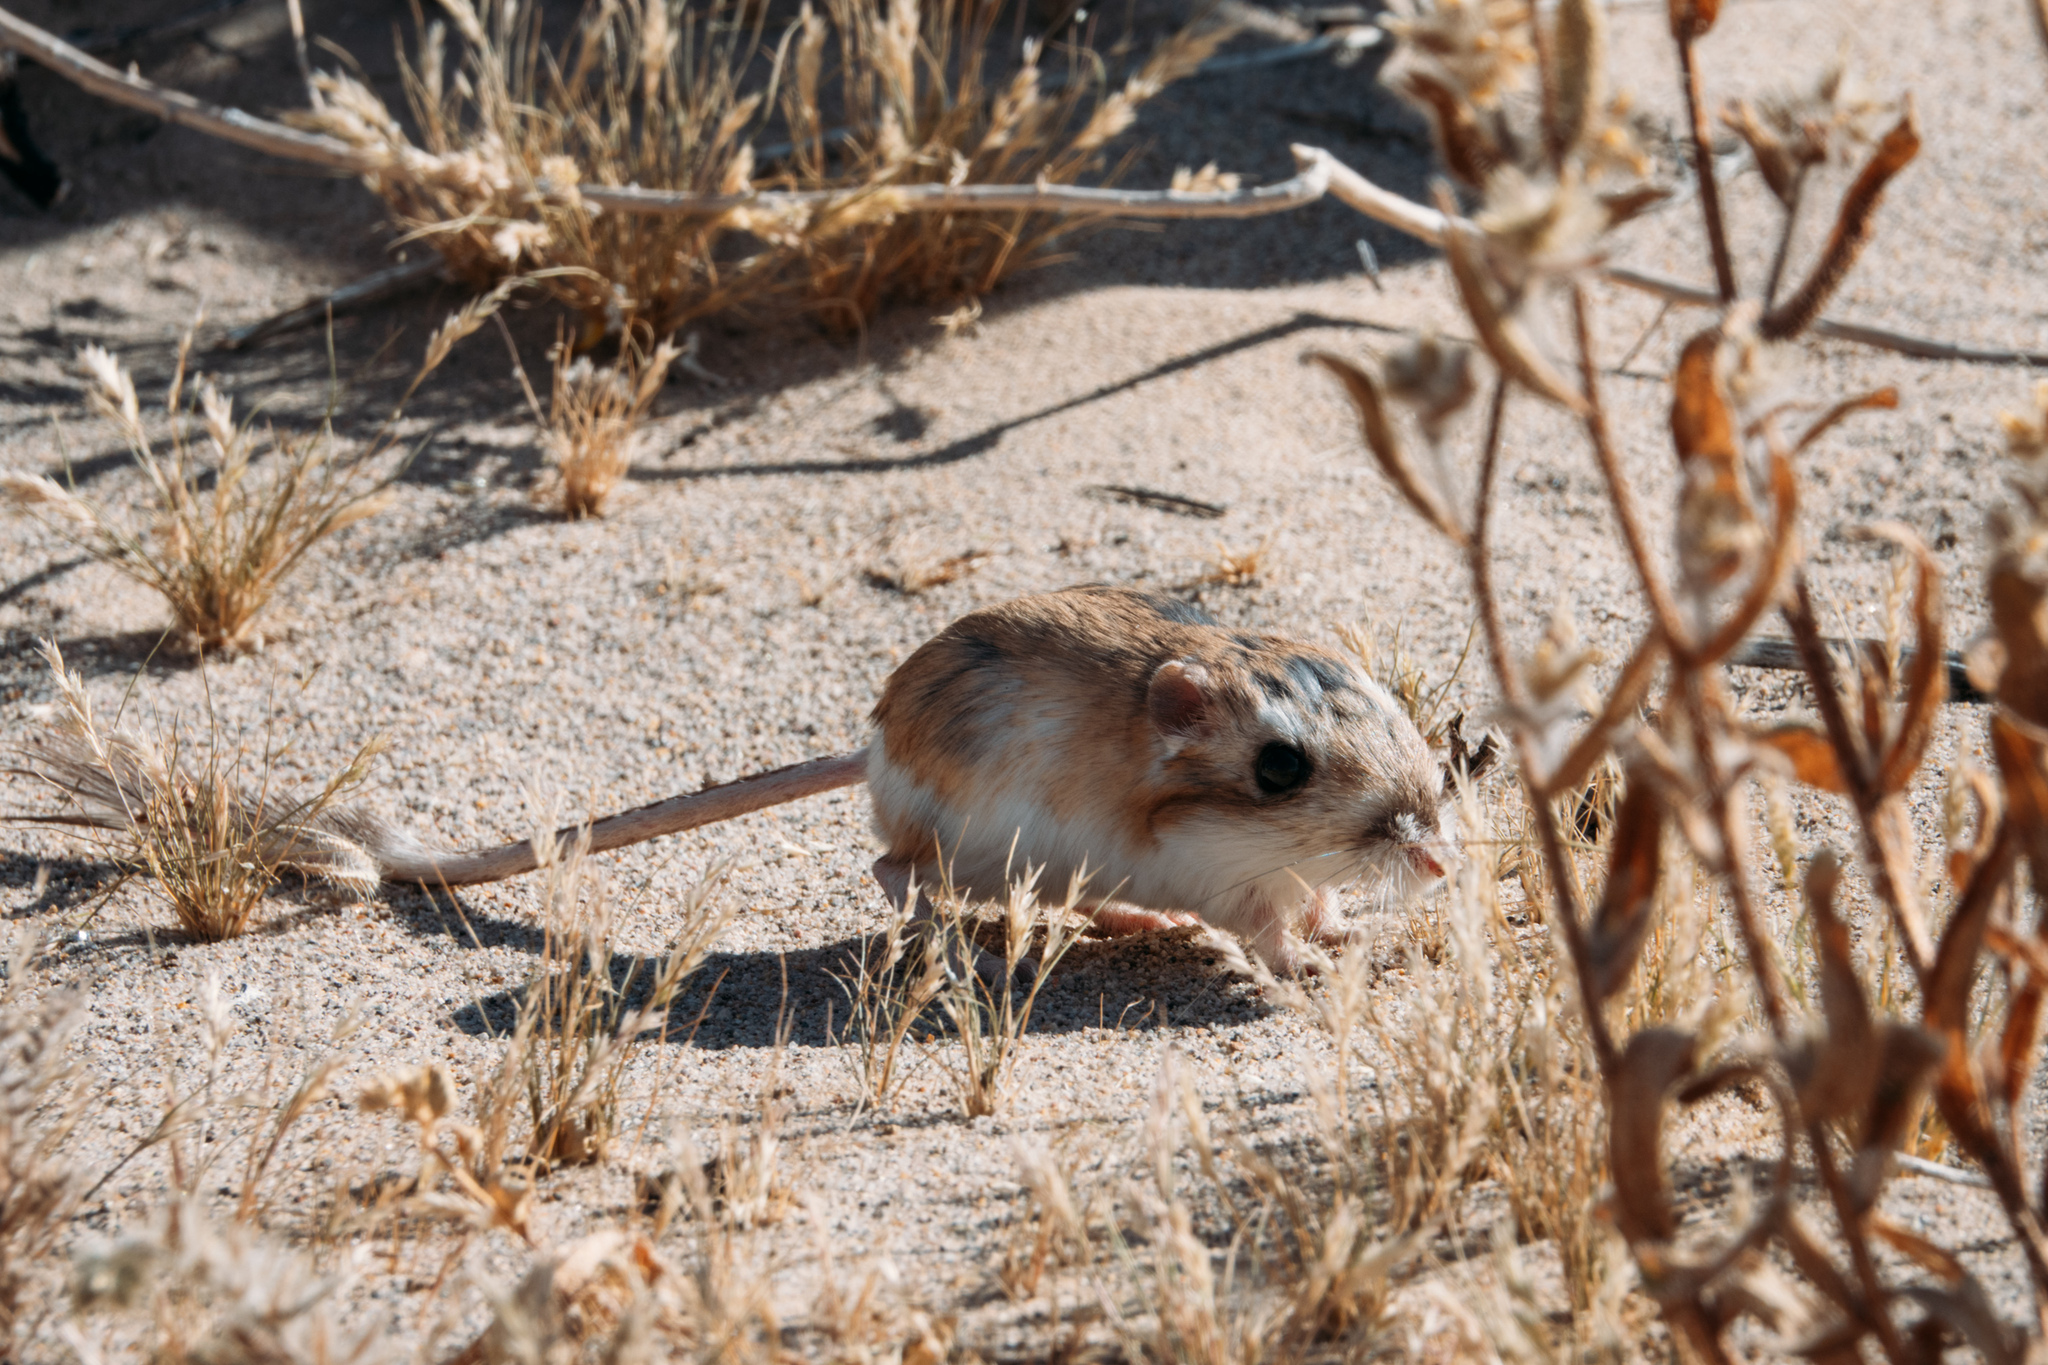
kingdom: Animalia
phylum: Chordata
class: Mammalia
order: Rodentia
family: Heteromyidae
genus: Dipodomys
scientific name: Dipodomys merriami
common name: Merriam's kangaroo rat
